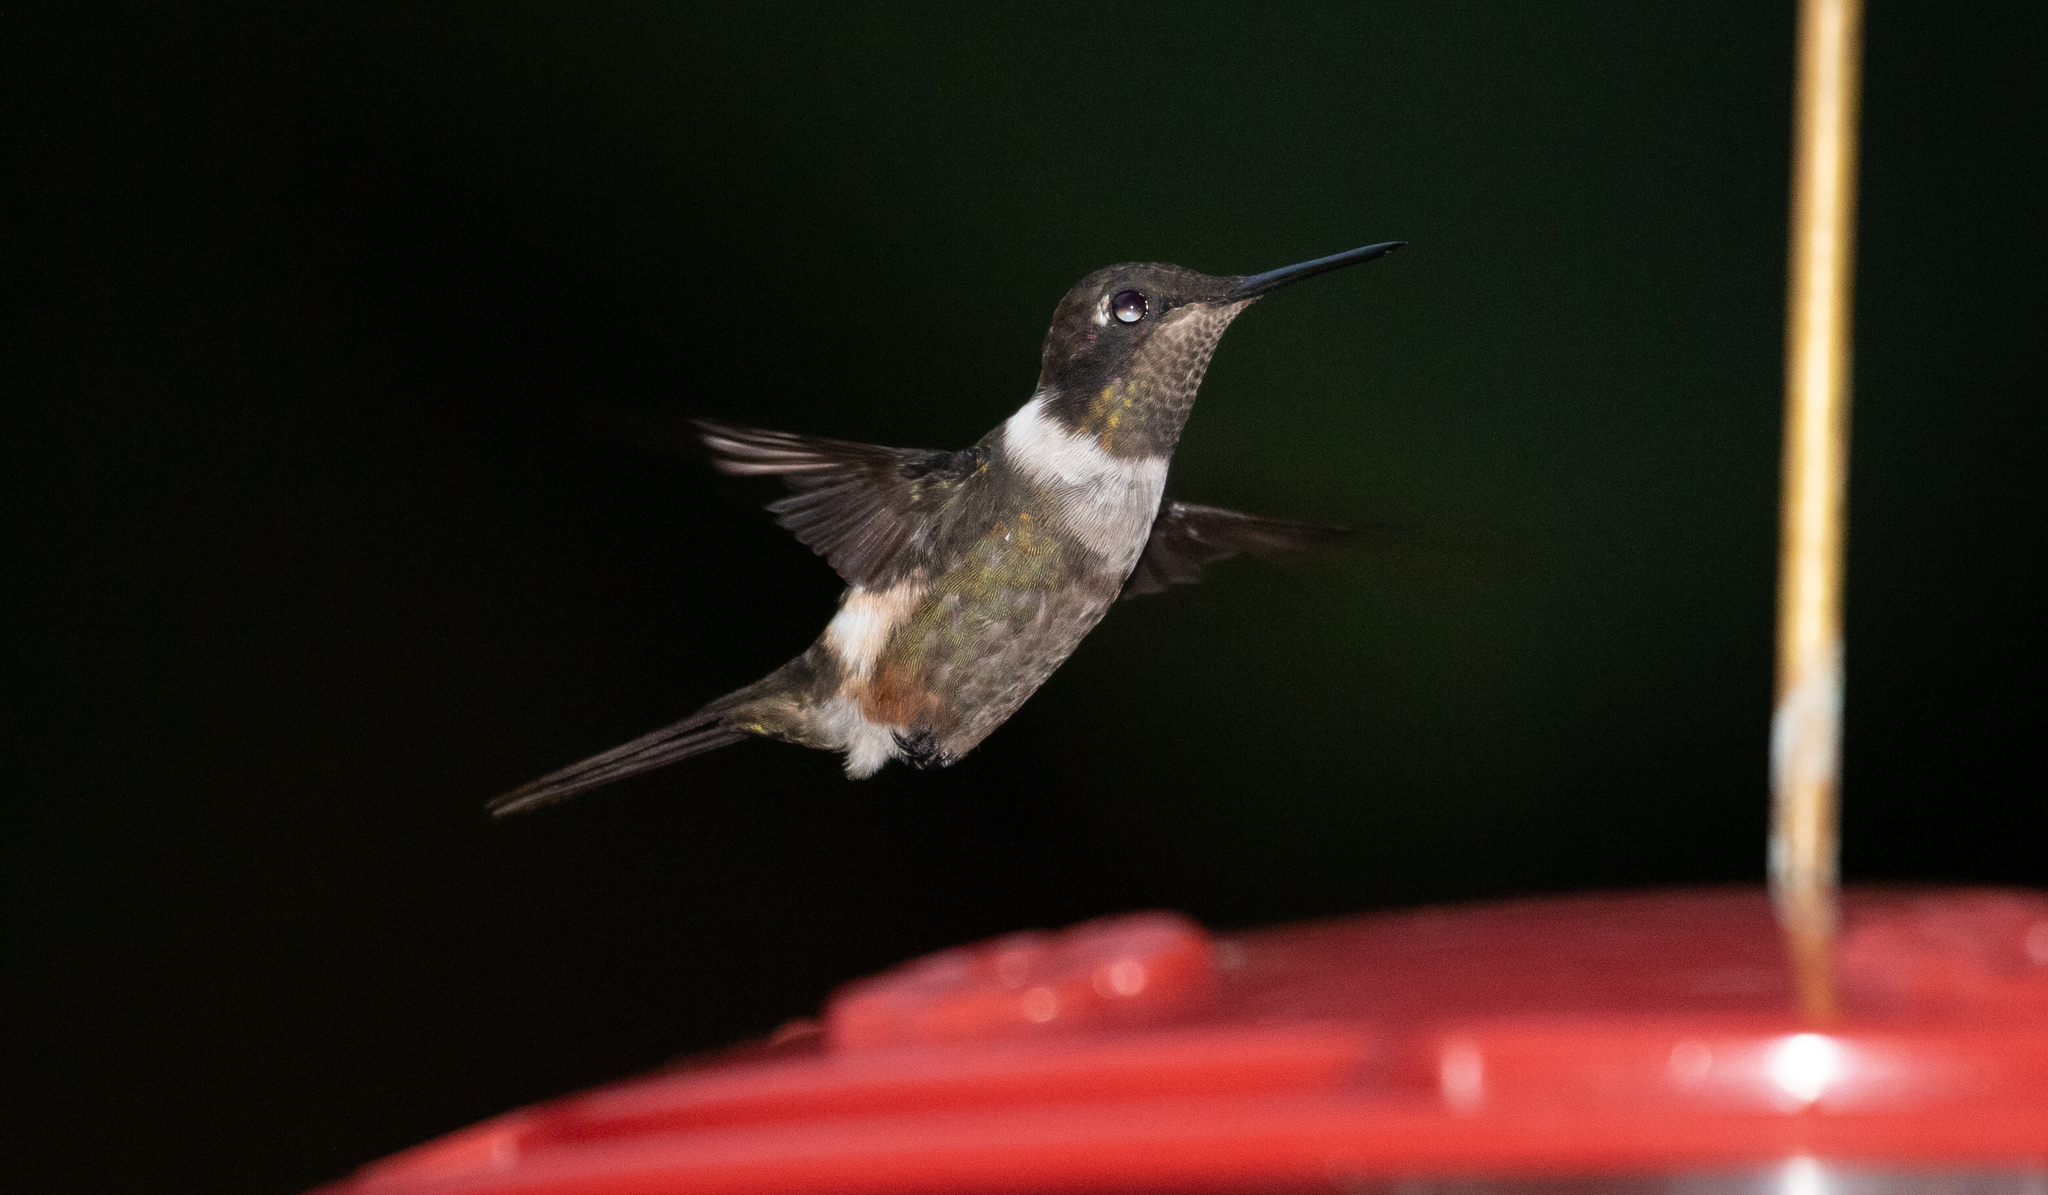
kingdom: Animalia
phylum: Chordata
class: Aves
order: Apodiformes
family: Trochilidae
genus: Calliphlox
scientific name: Calliphlox mitchellii
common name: Purple-throated woodstar
